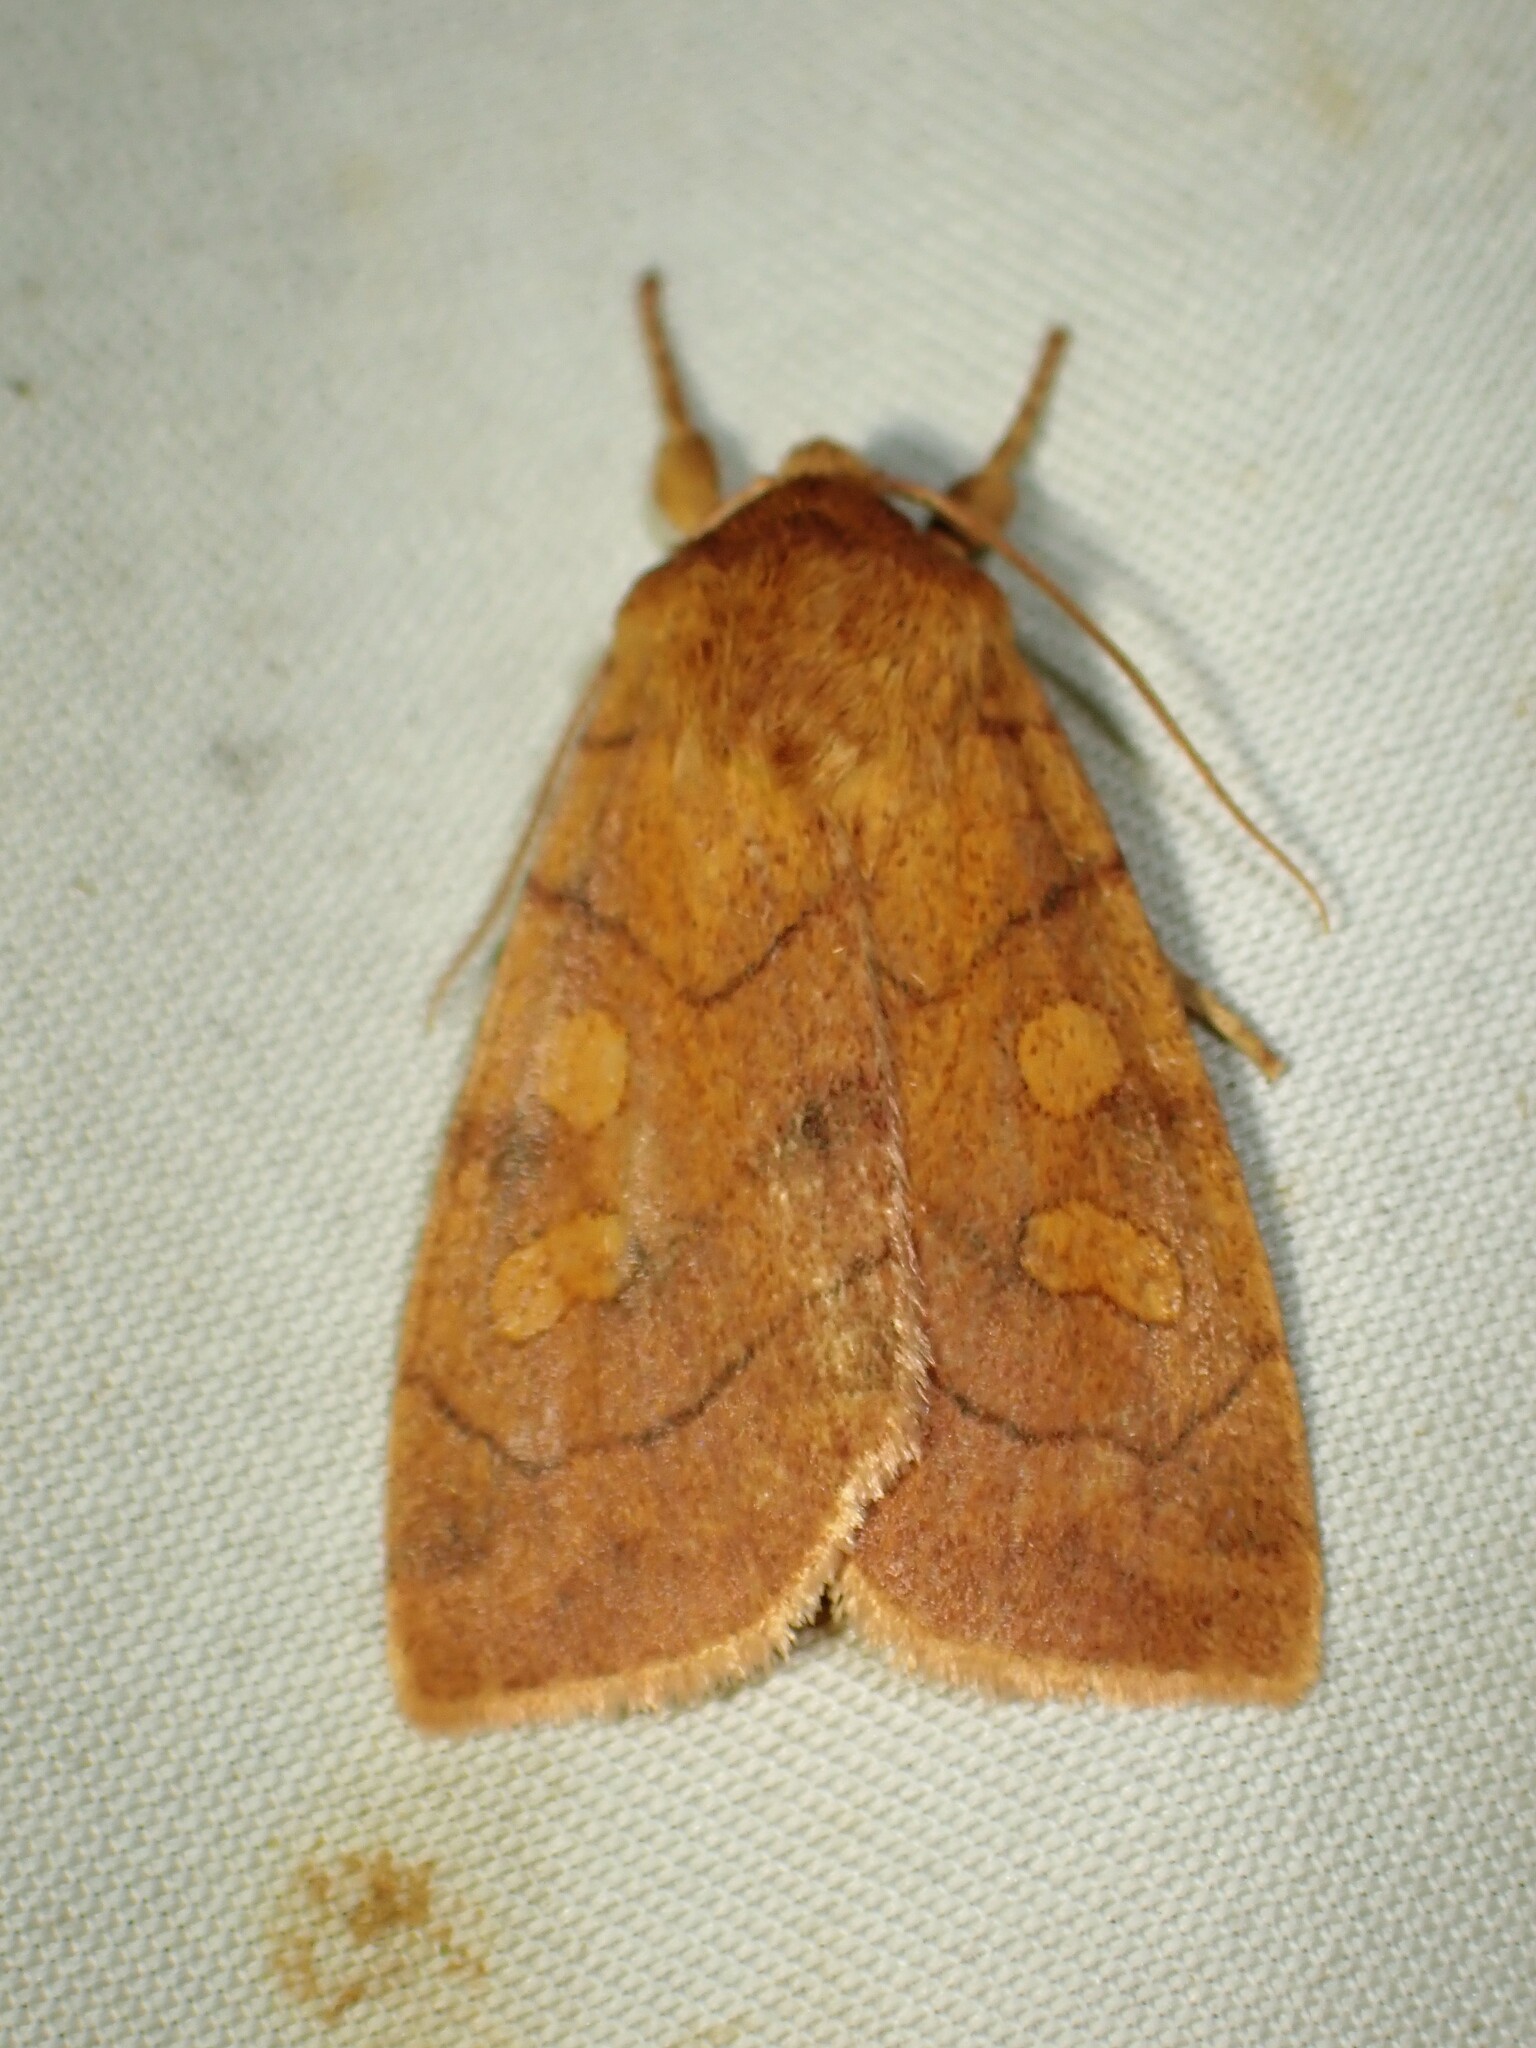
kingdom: Animalia
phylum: Arthropoda
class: Insecta
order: Lepidoptera
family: Noctuidae
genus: Enargia
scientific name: Enargia decolor
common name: Aspen twoleaf tier moth
